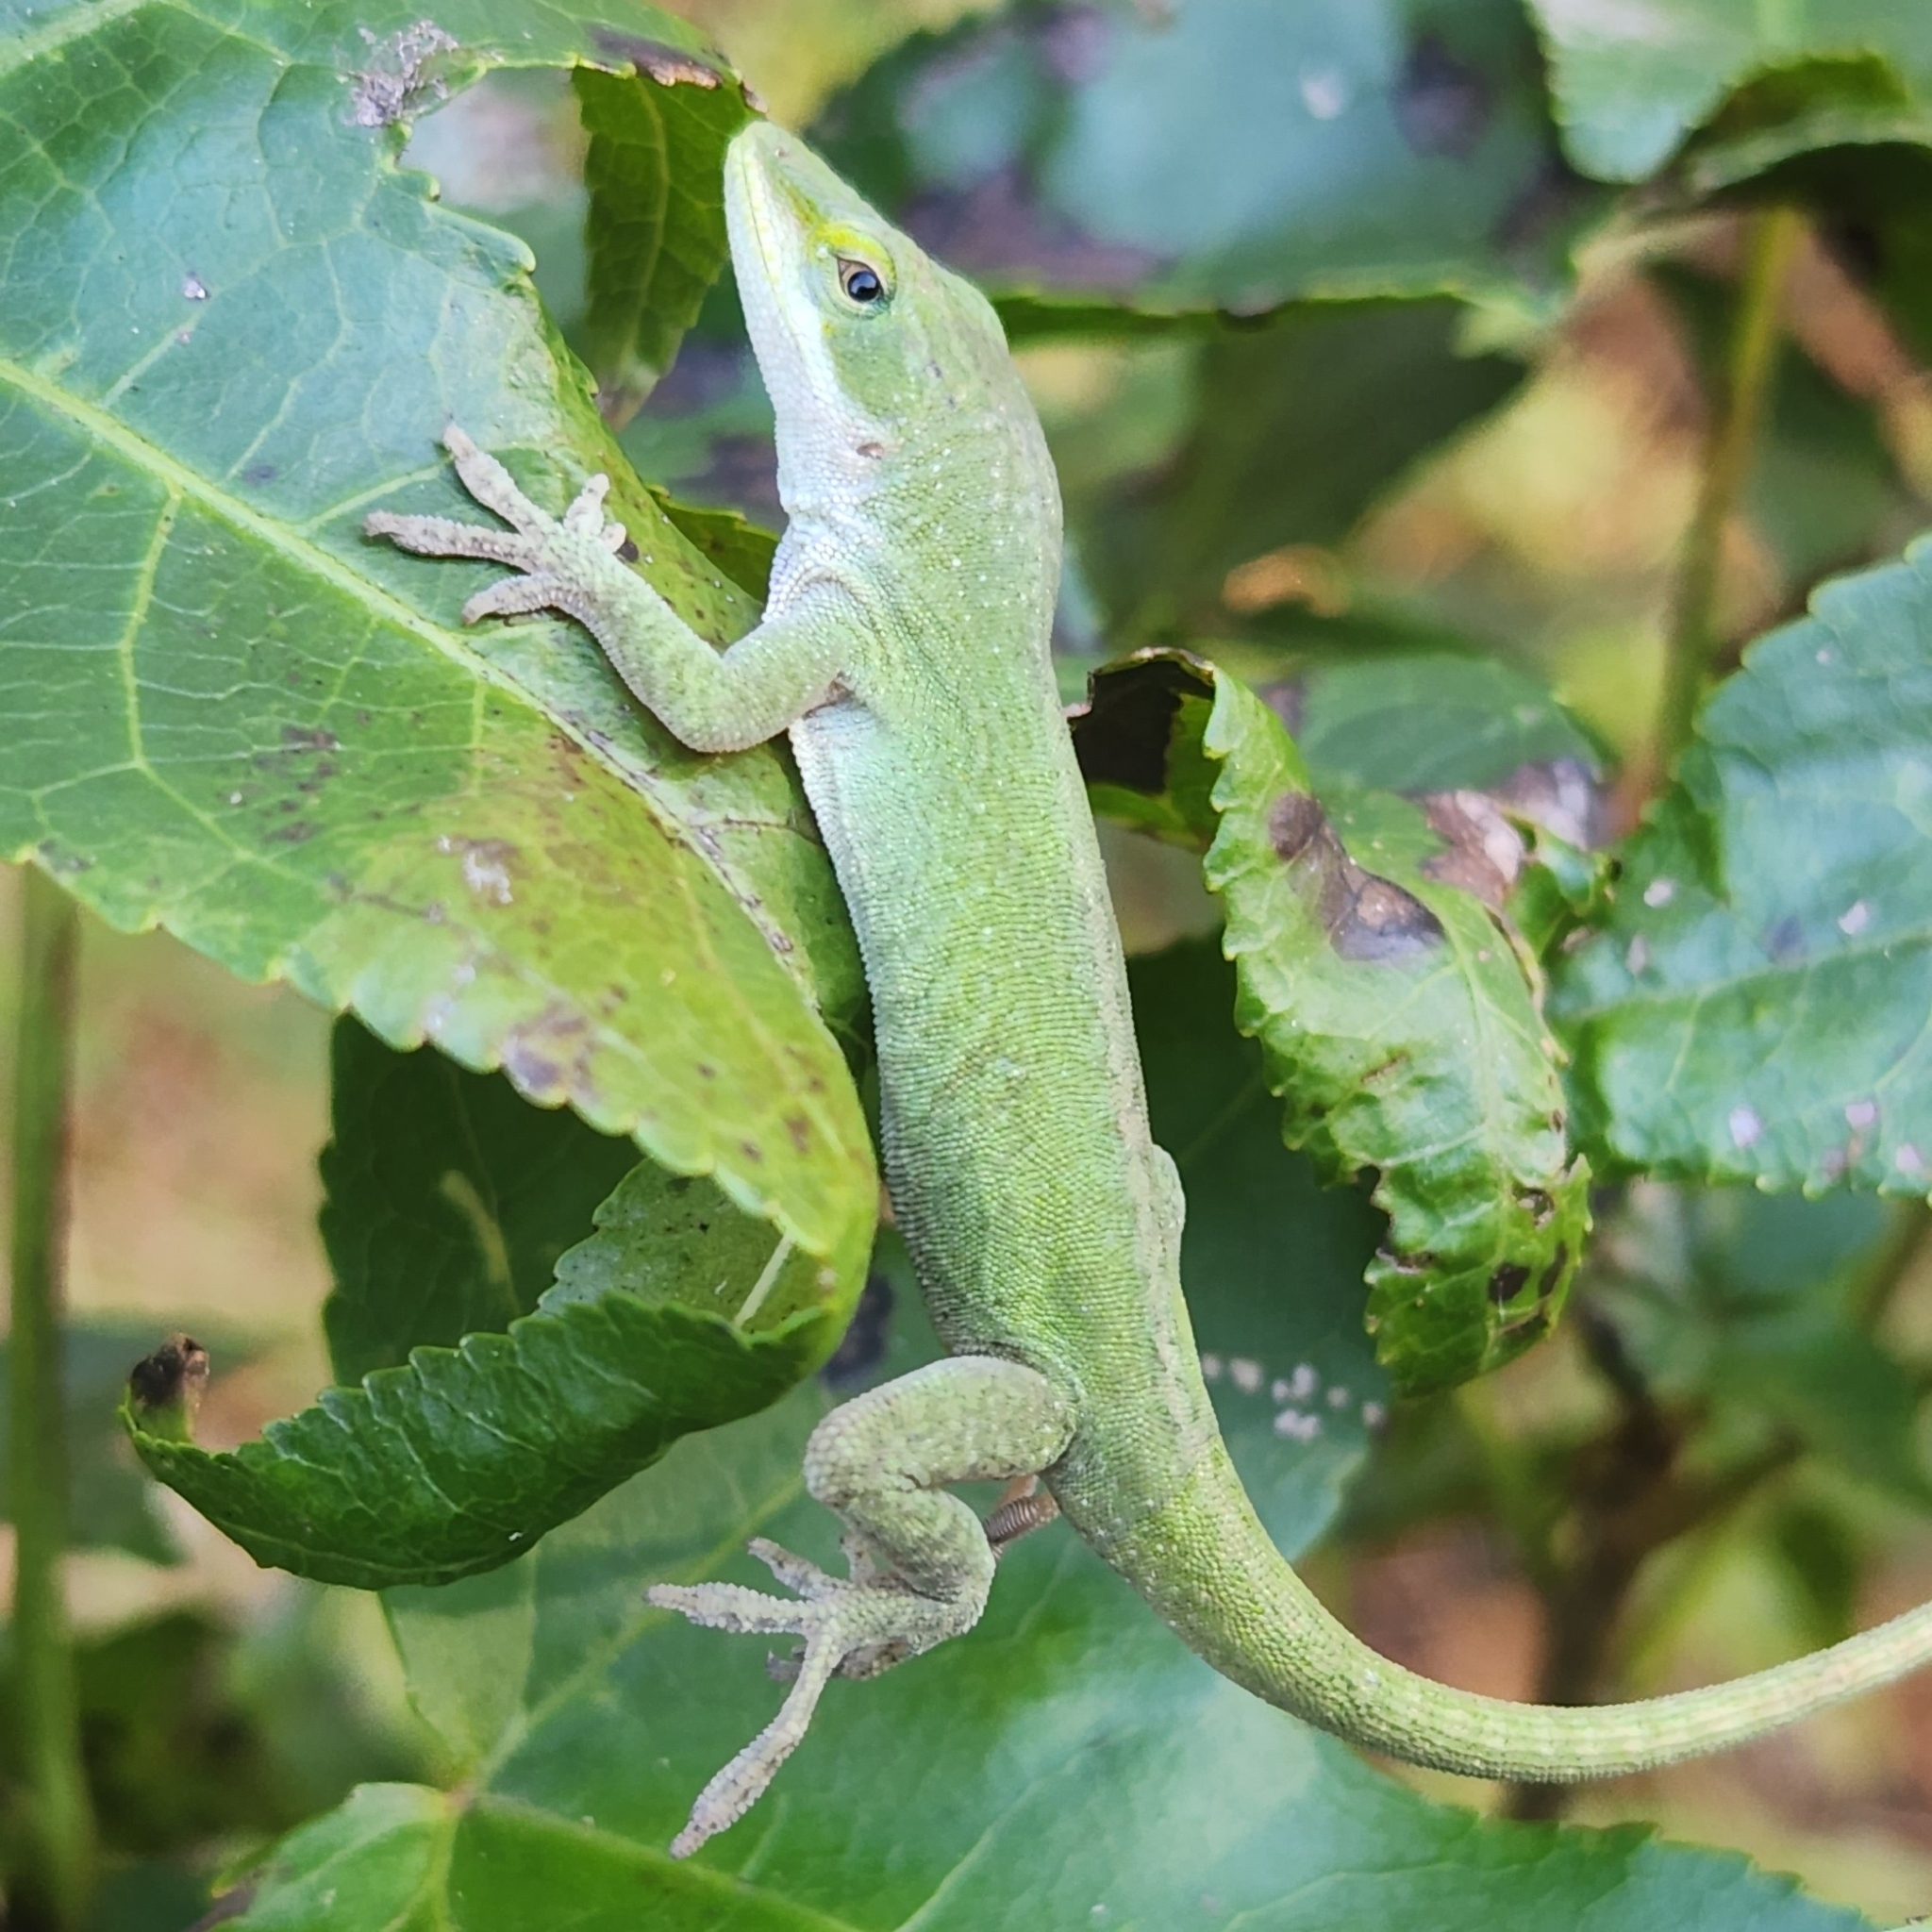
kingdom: Animalia
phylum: Chordata
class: Squamata
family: Dactyloidae
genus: Anolis
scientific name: Anolis carolinensis
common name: Green anole
